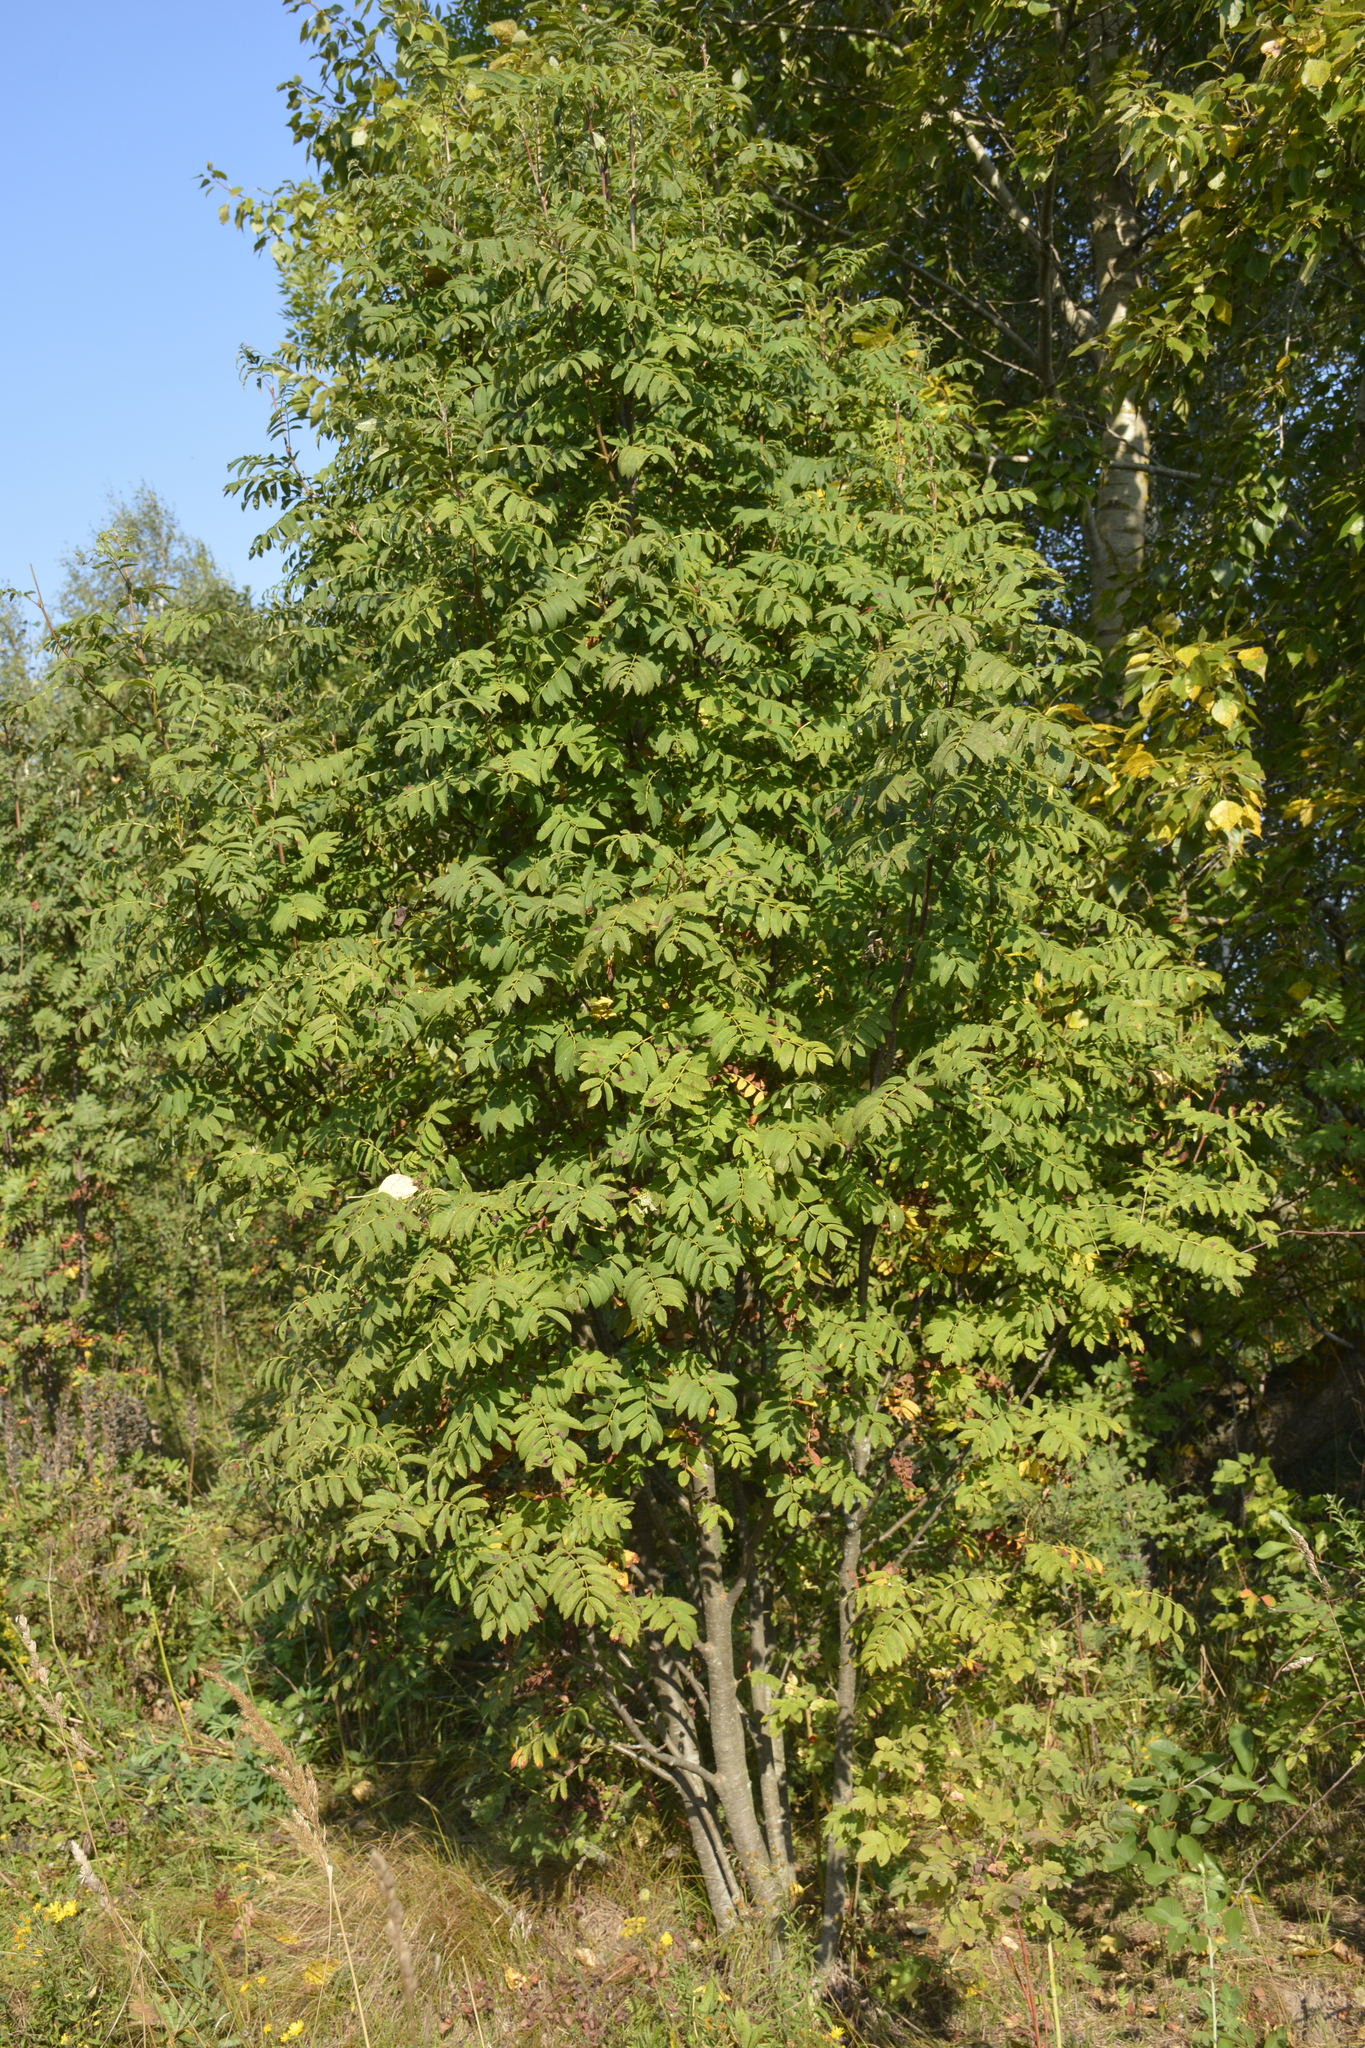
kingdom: Plantae
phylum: Tracheophyta
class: Magnoliopsida
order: Rosales
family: Rosaceae
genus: Sorbus
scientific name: Sorbus aucuparia
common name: Rowan
